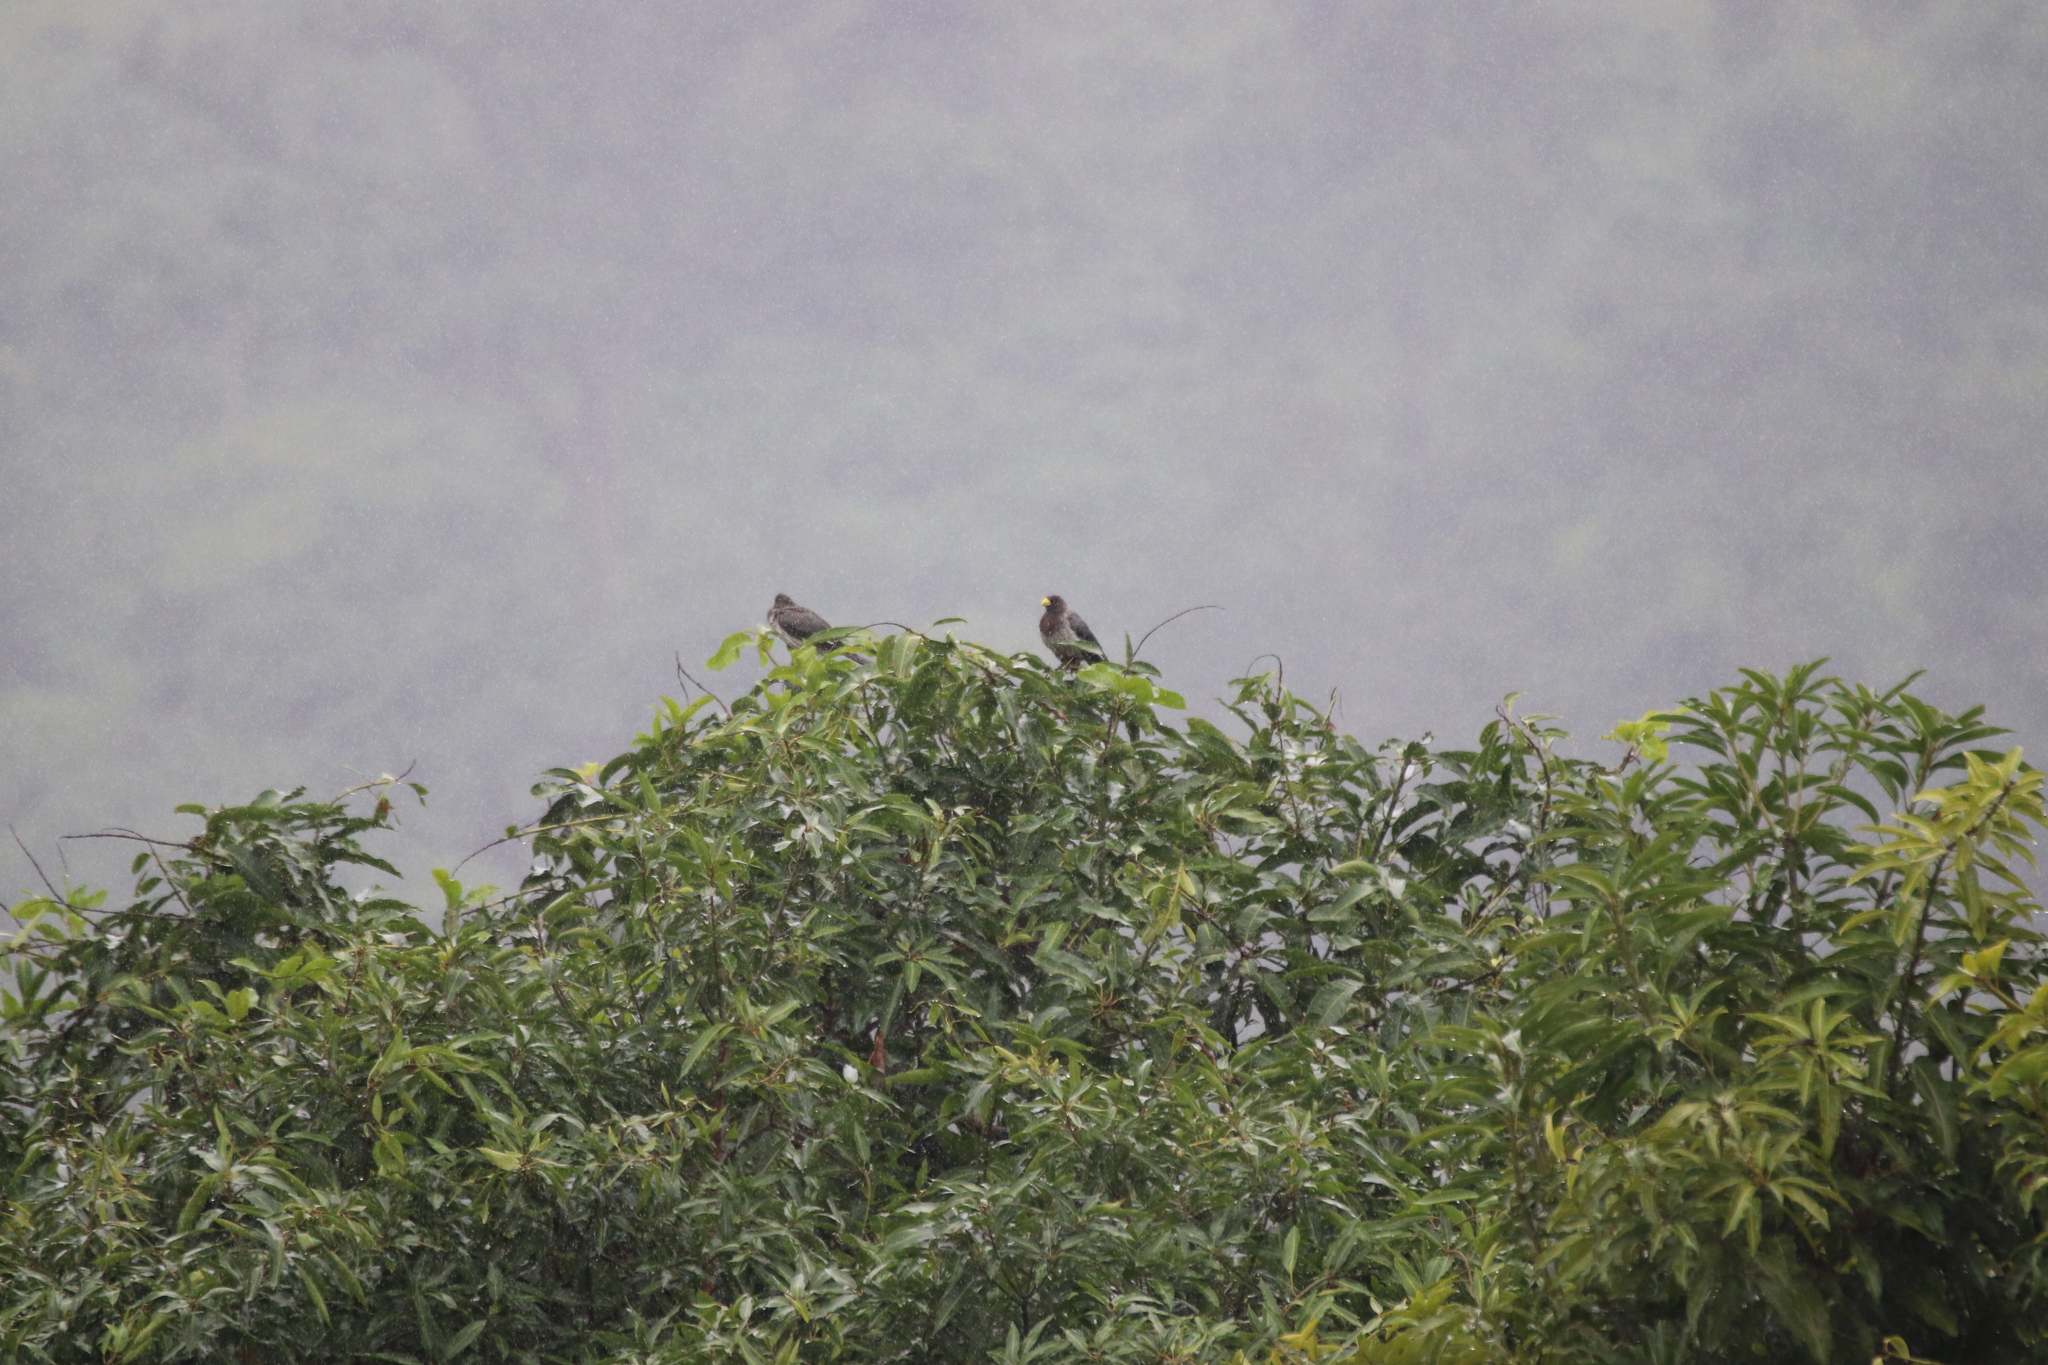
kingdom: Animalia
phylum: Chordata
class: Aves
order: Musophagiformes
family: Musophagidae
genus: Crinifer
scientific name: Crinifer piscator
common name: Western plantain-eater
